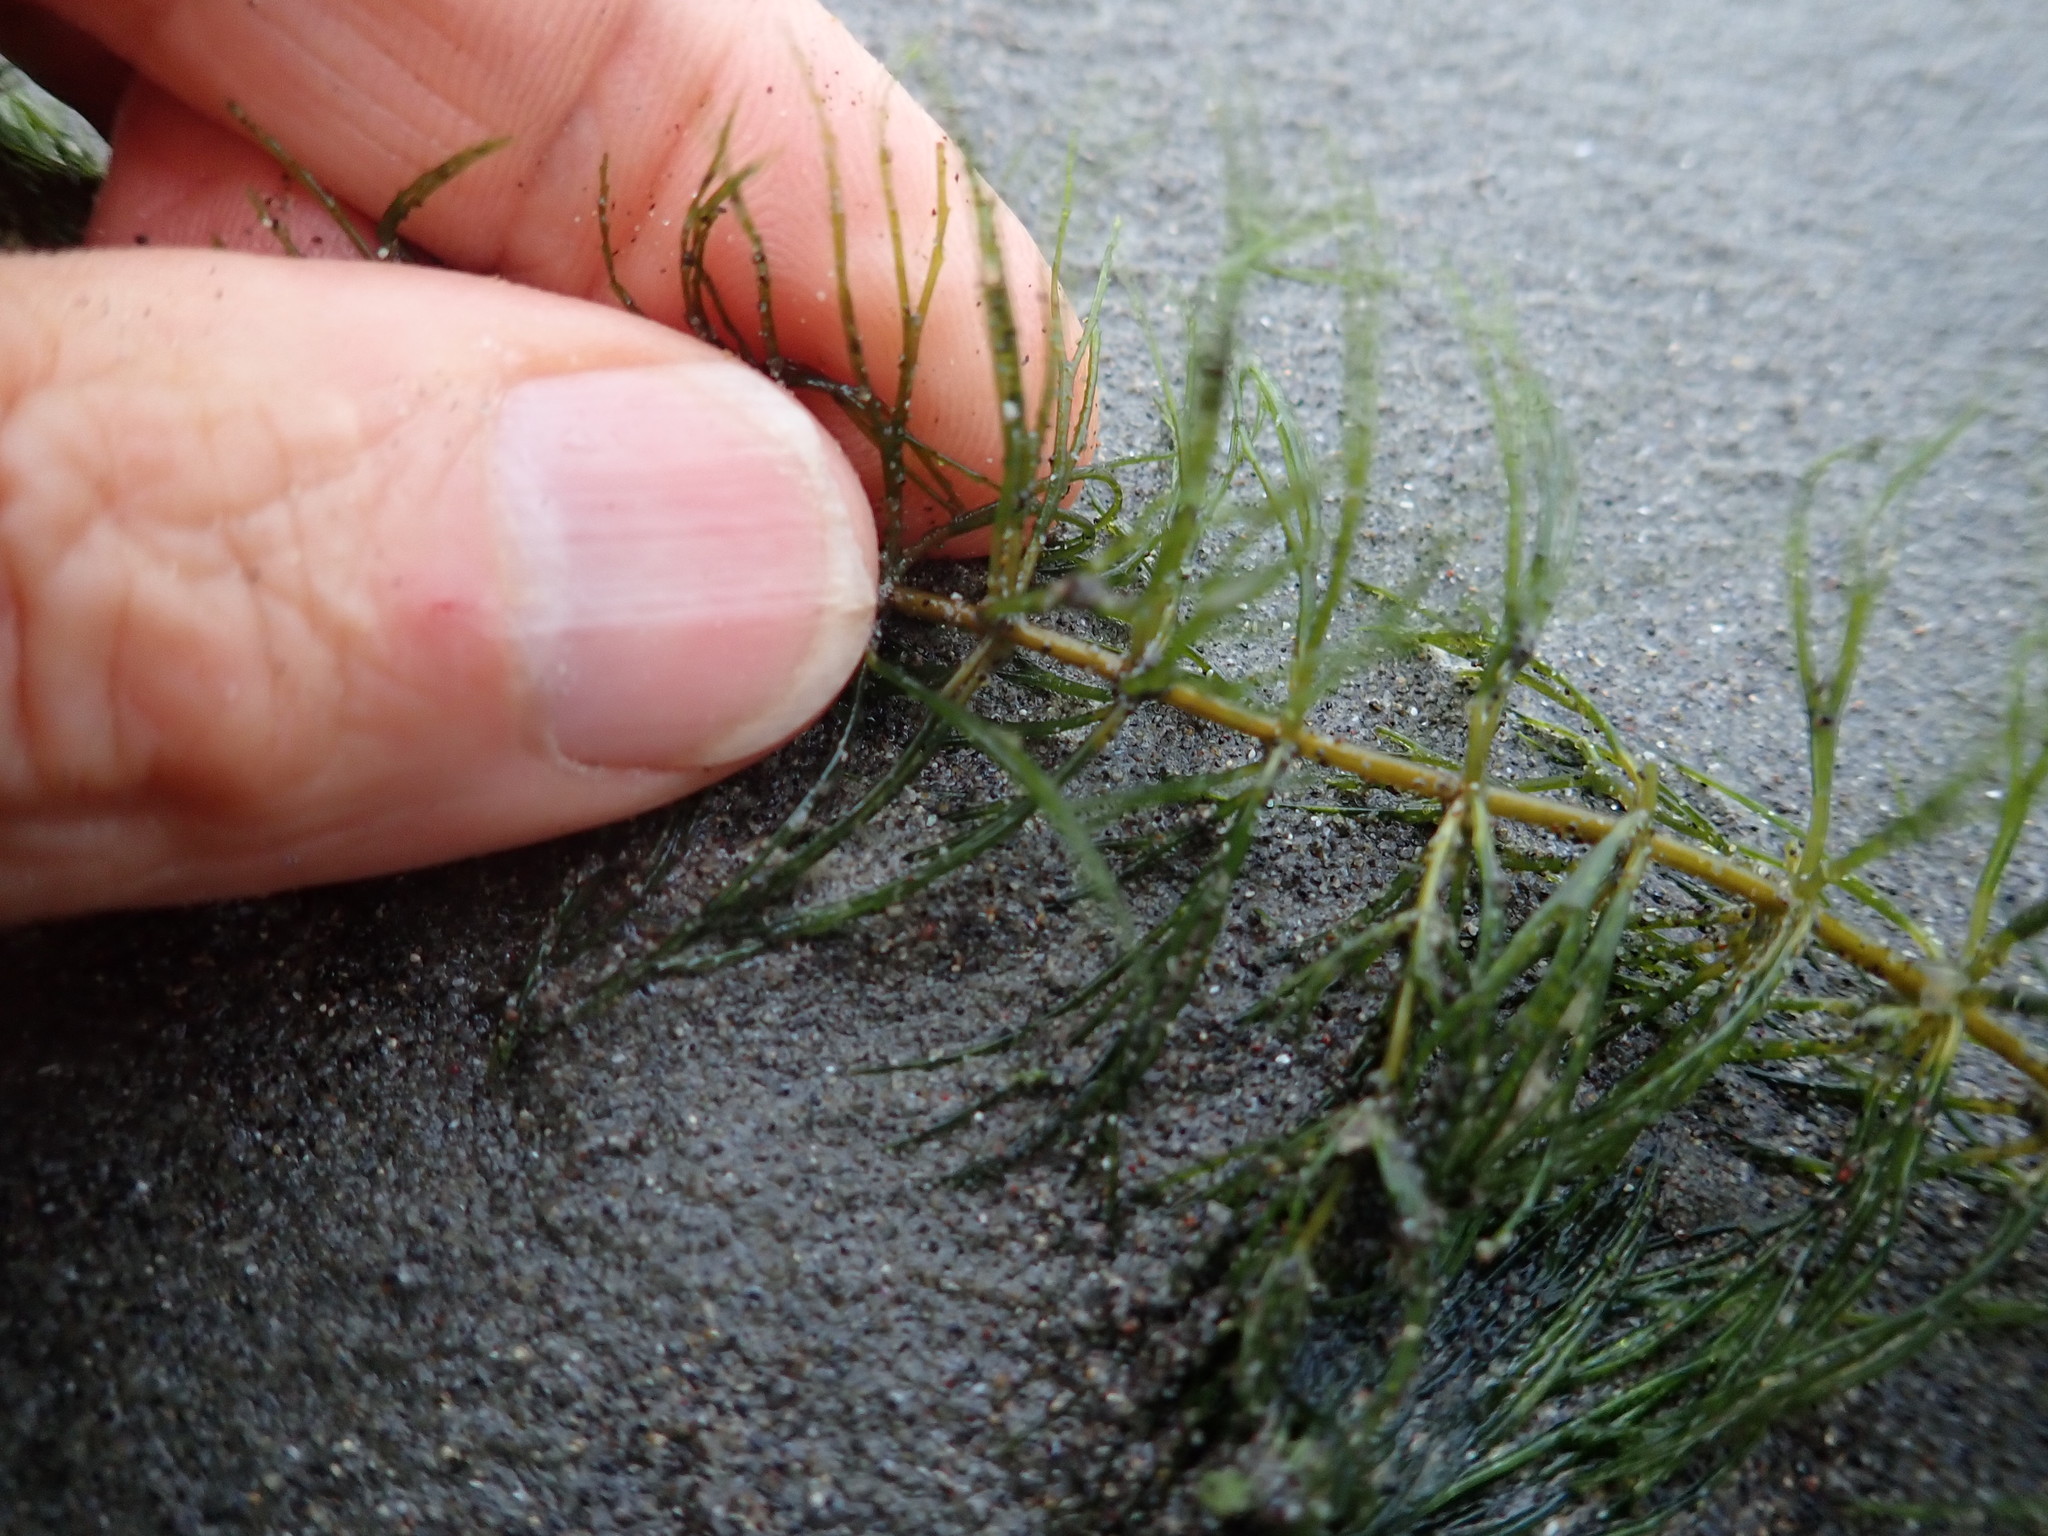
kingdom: Plantae
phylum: Tracheophyta
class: Magnoliopsida
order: Ceratophyllales
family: Ceratophyllaceae
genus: Ceratophyllum
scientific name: Ceratophyllum demersum
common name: Rigid hornwort
